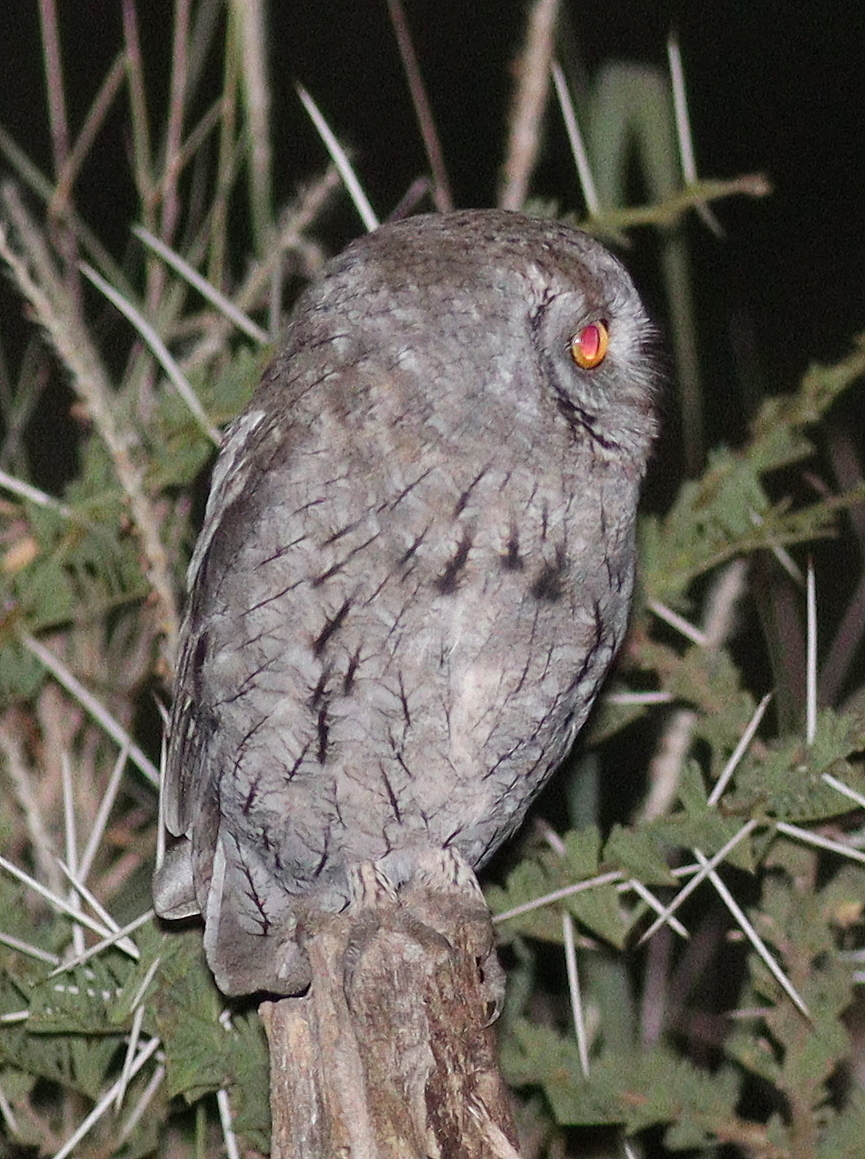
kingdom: Animalia
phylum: Chordata
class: Aves
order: Strigiformes
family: Strigidae
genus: Otus
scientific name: Otus senegalensis
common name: African scops owl
